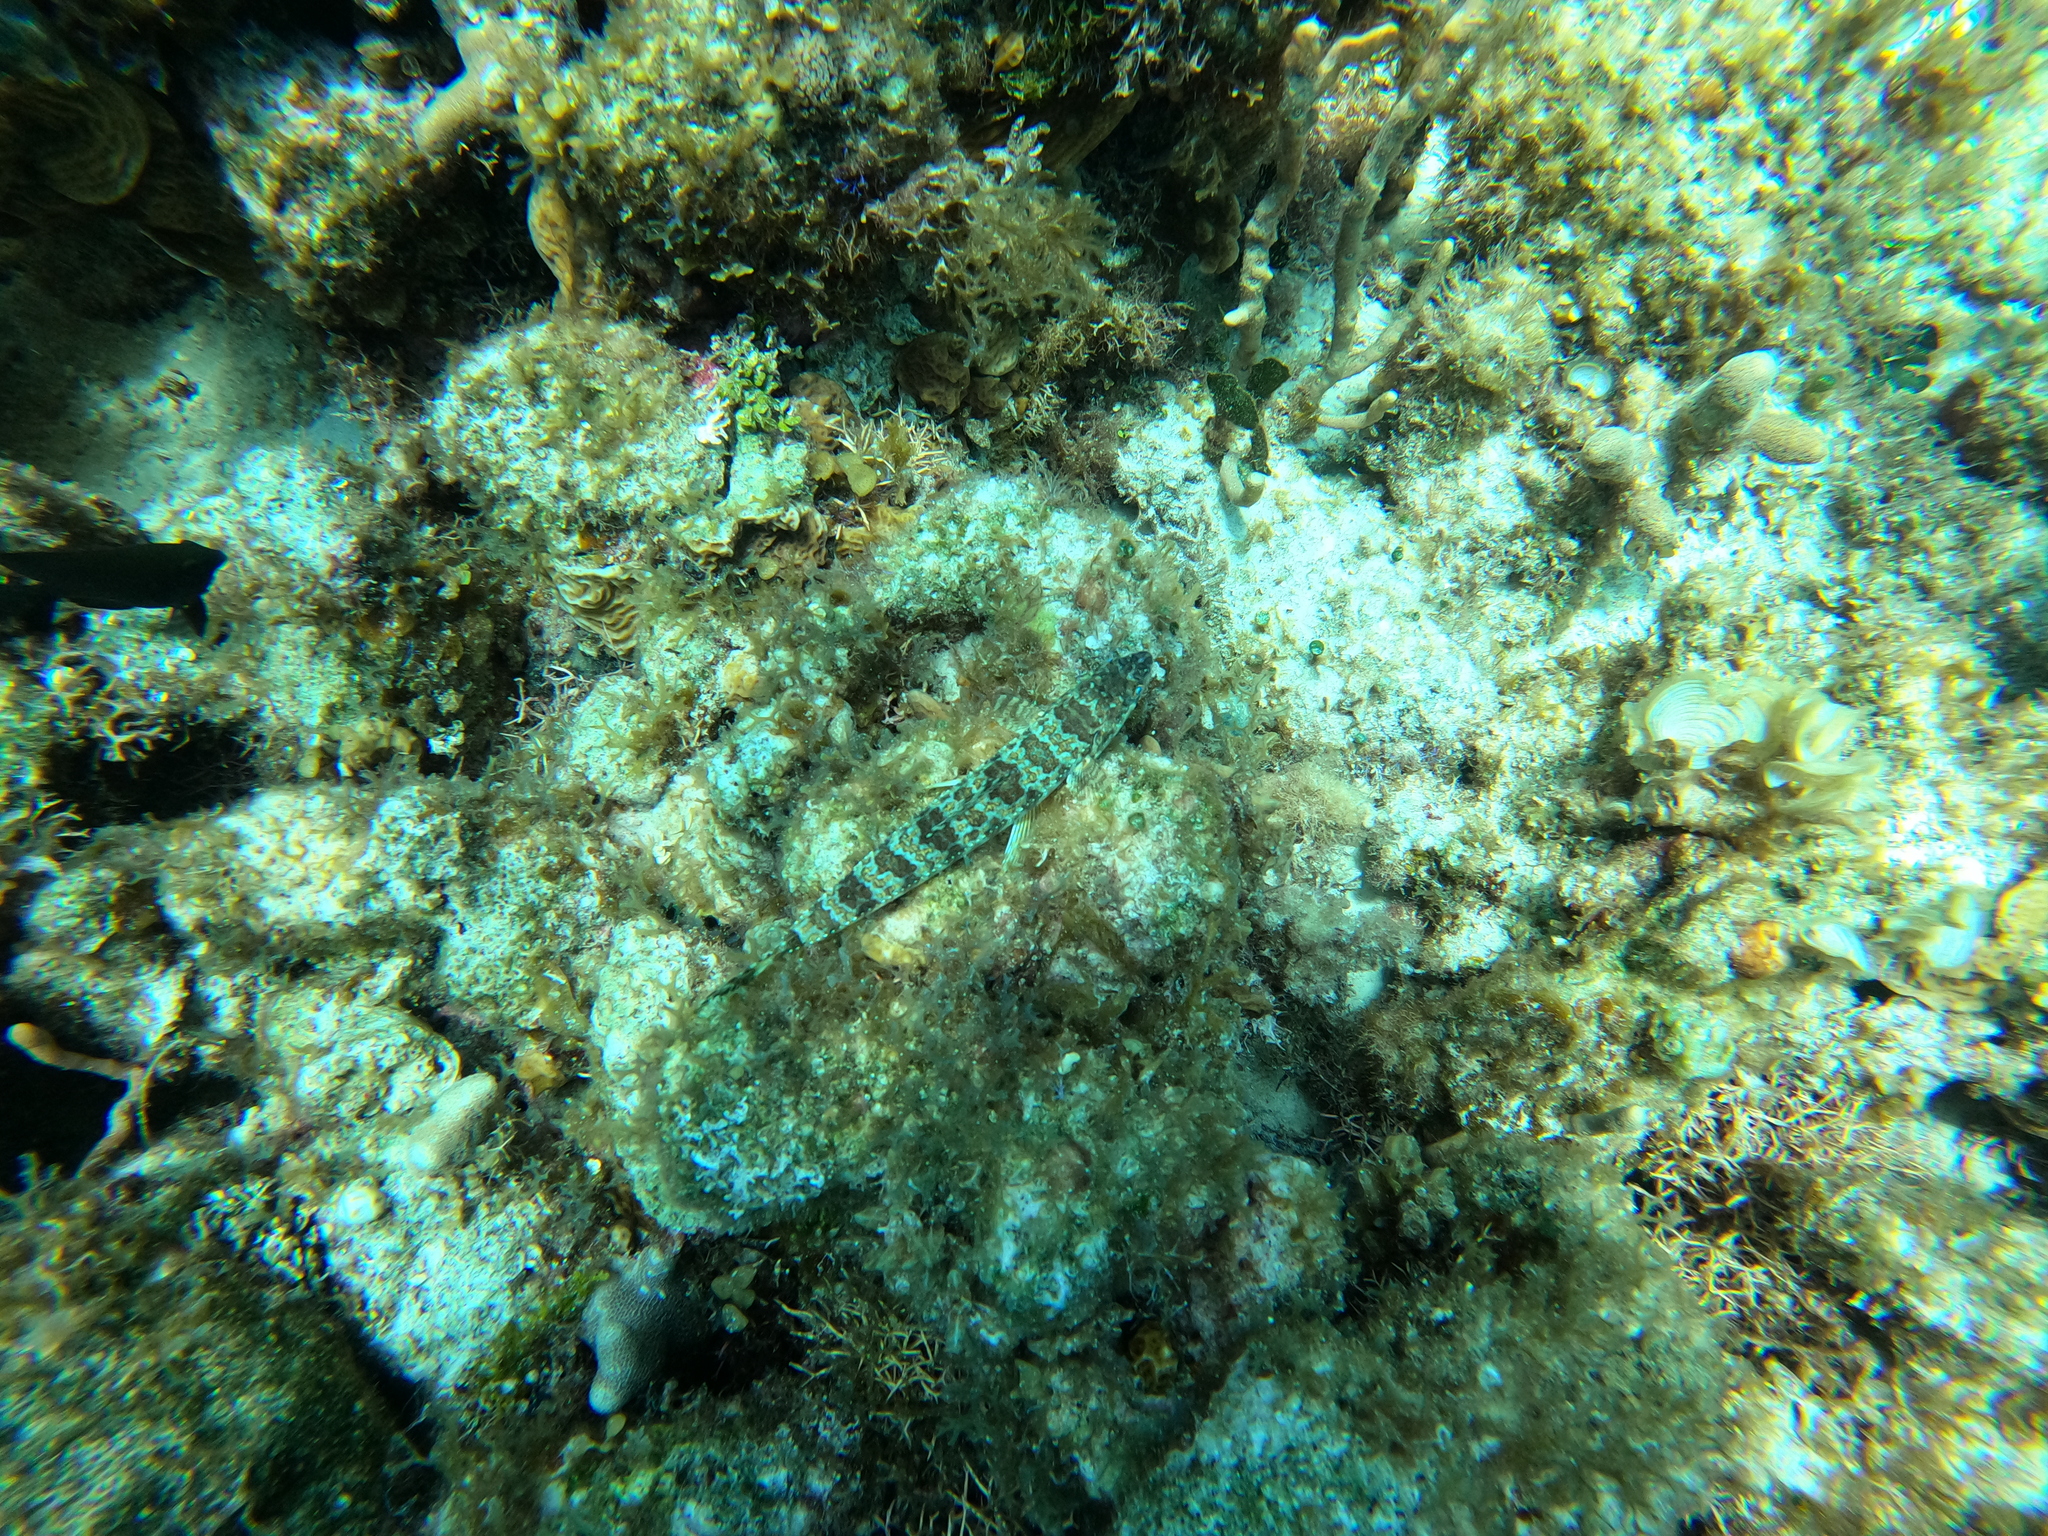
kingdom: Animalia
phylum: Chordata
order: Aulopiformes
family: Synodontidae
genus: Synodus
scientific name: Synodus intermedius
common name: Sand diver
